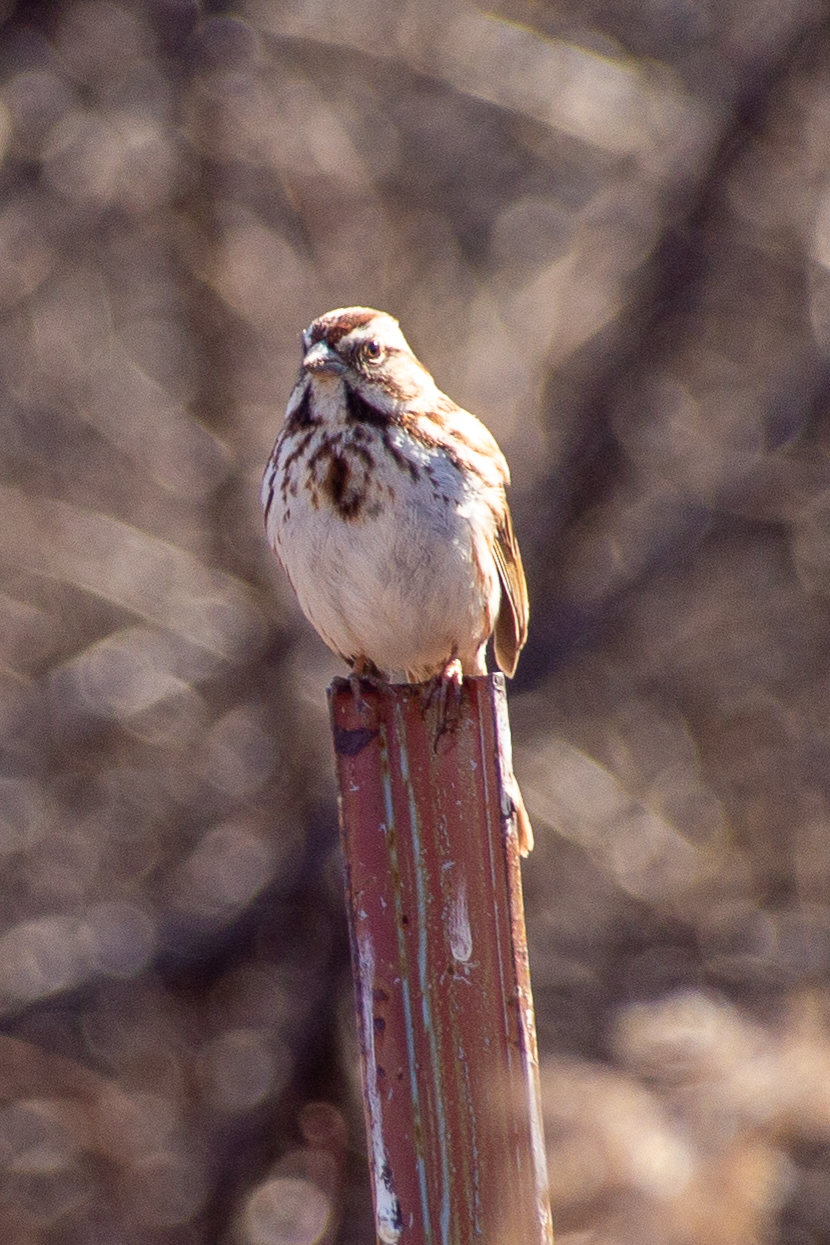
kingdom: Animalia
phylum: Chordata
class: Aves
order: Passeriformes
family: Passerellidae
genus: Melospiza
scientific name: Melospiza melodia
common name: Song sparrow
